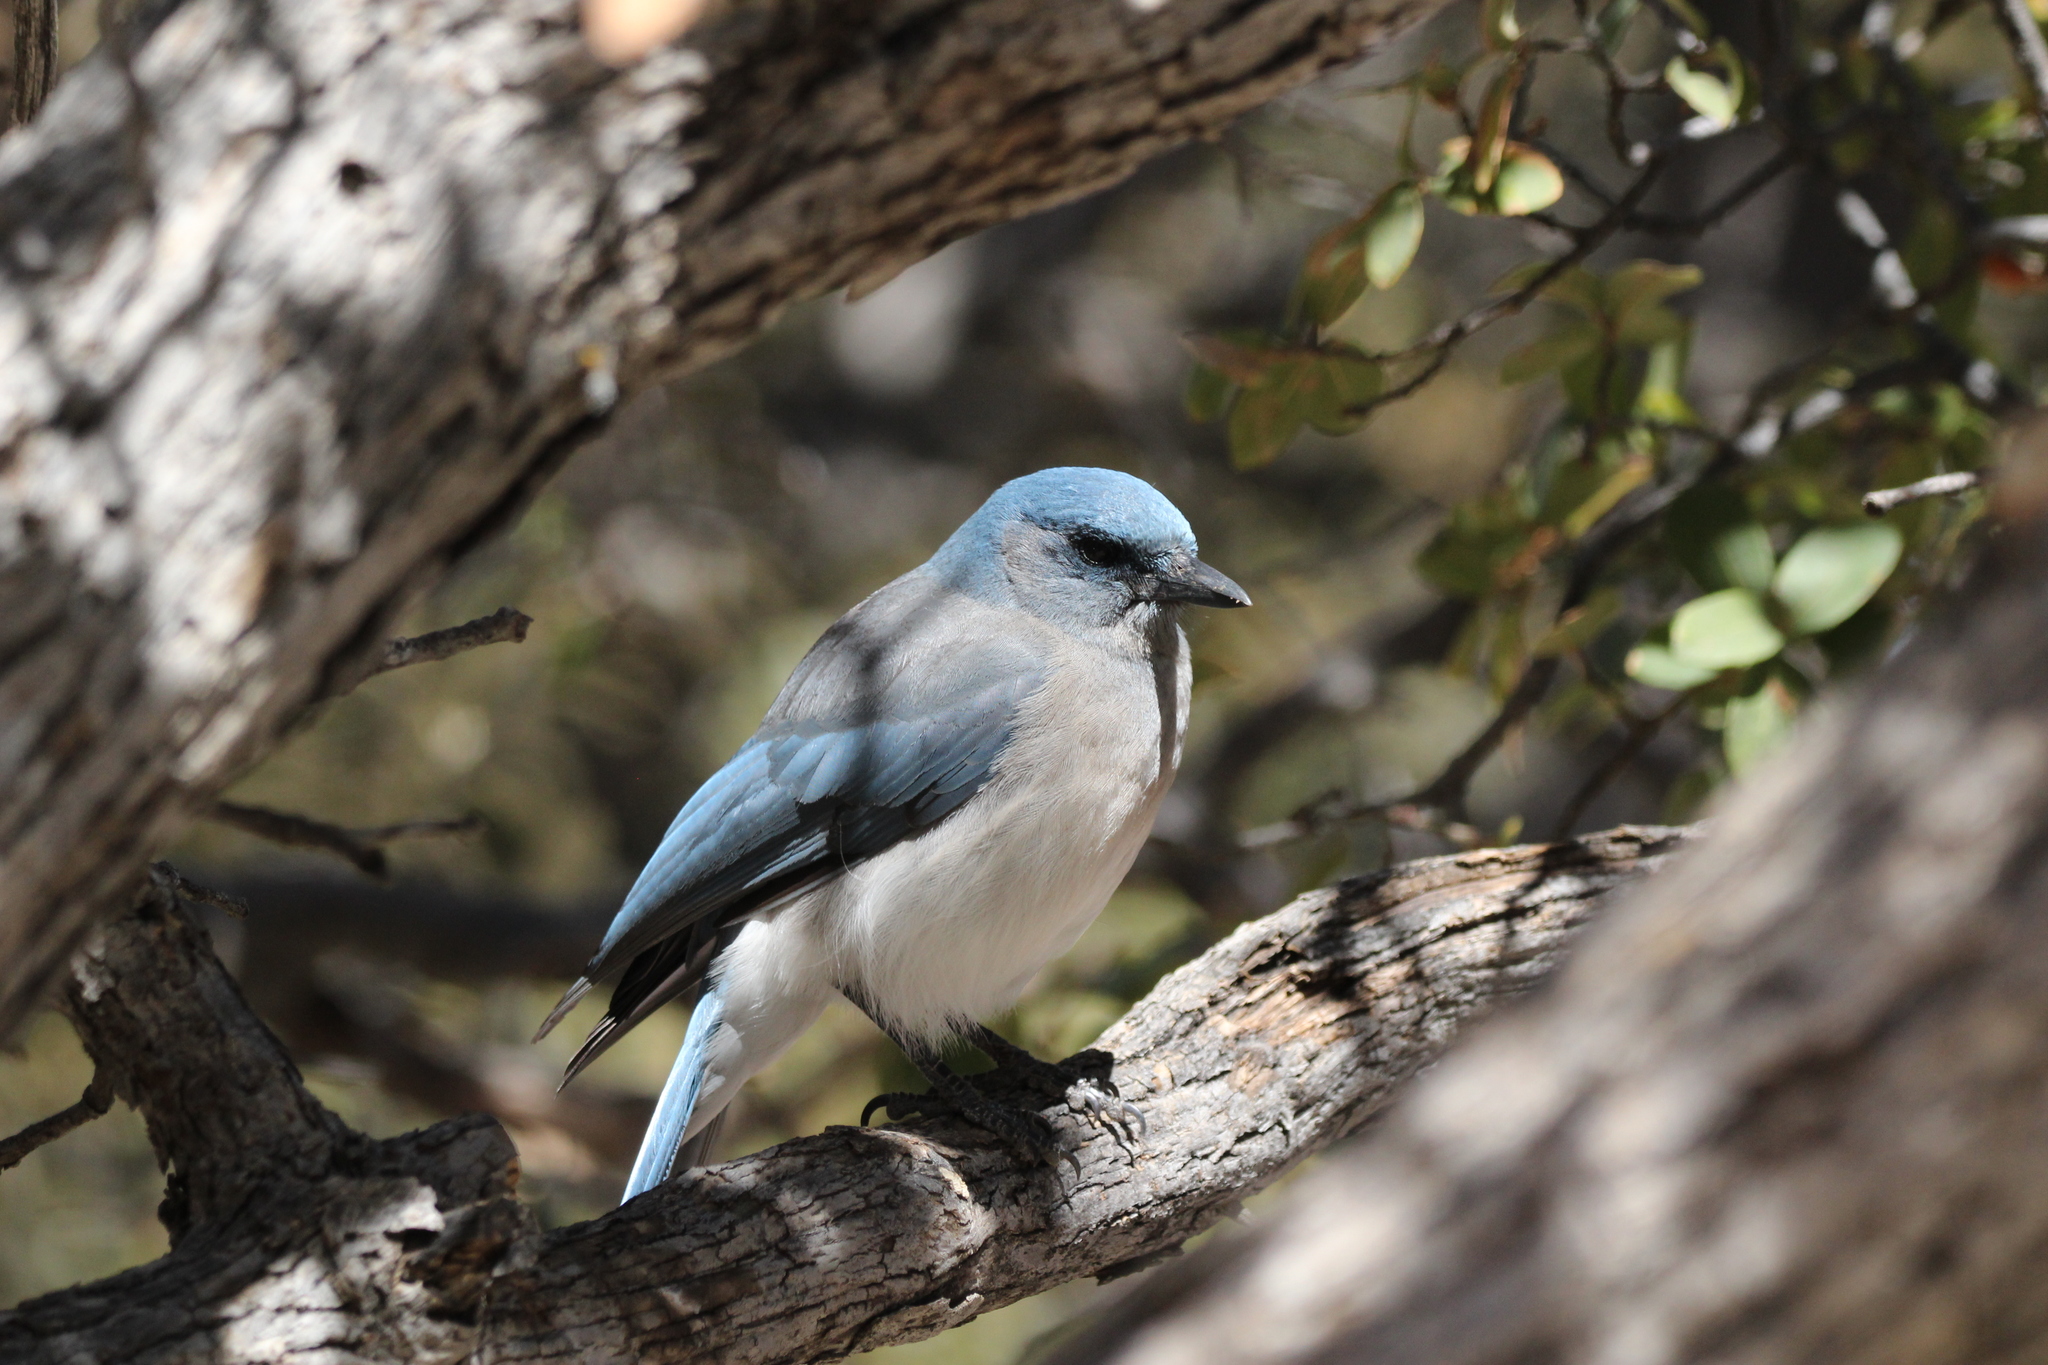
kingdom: Animalia
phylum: Chordata
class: Aves
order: Passeriformes
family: Corvidae
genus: Aphelocoma
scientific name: Aphelocoma wollweberi
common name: Mexican jay
